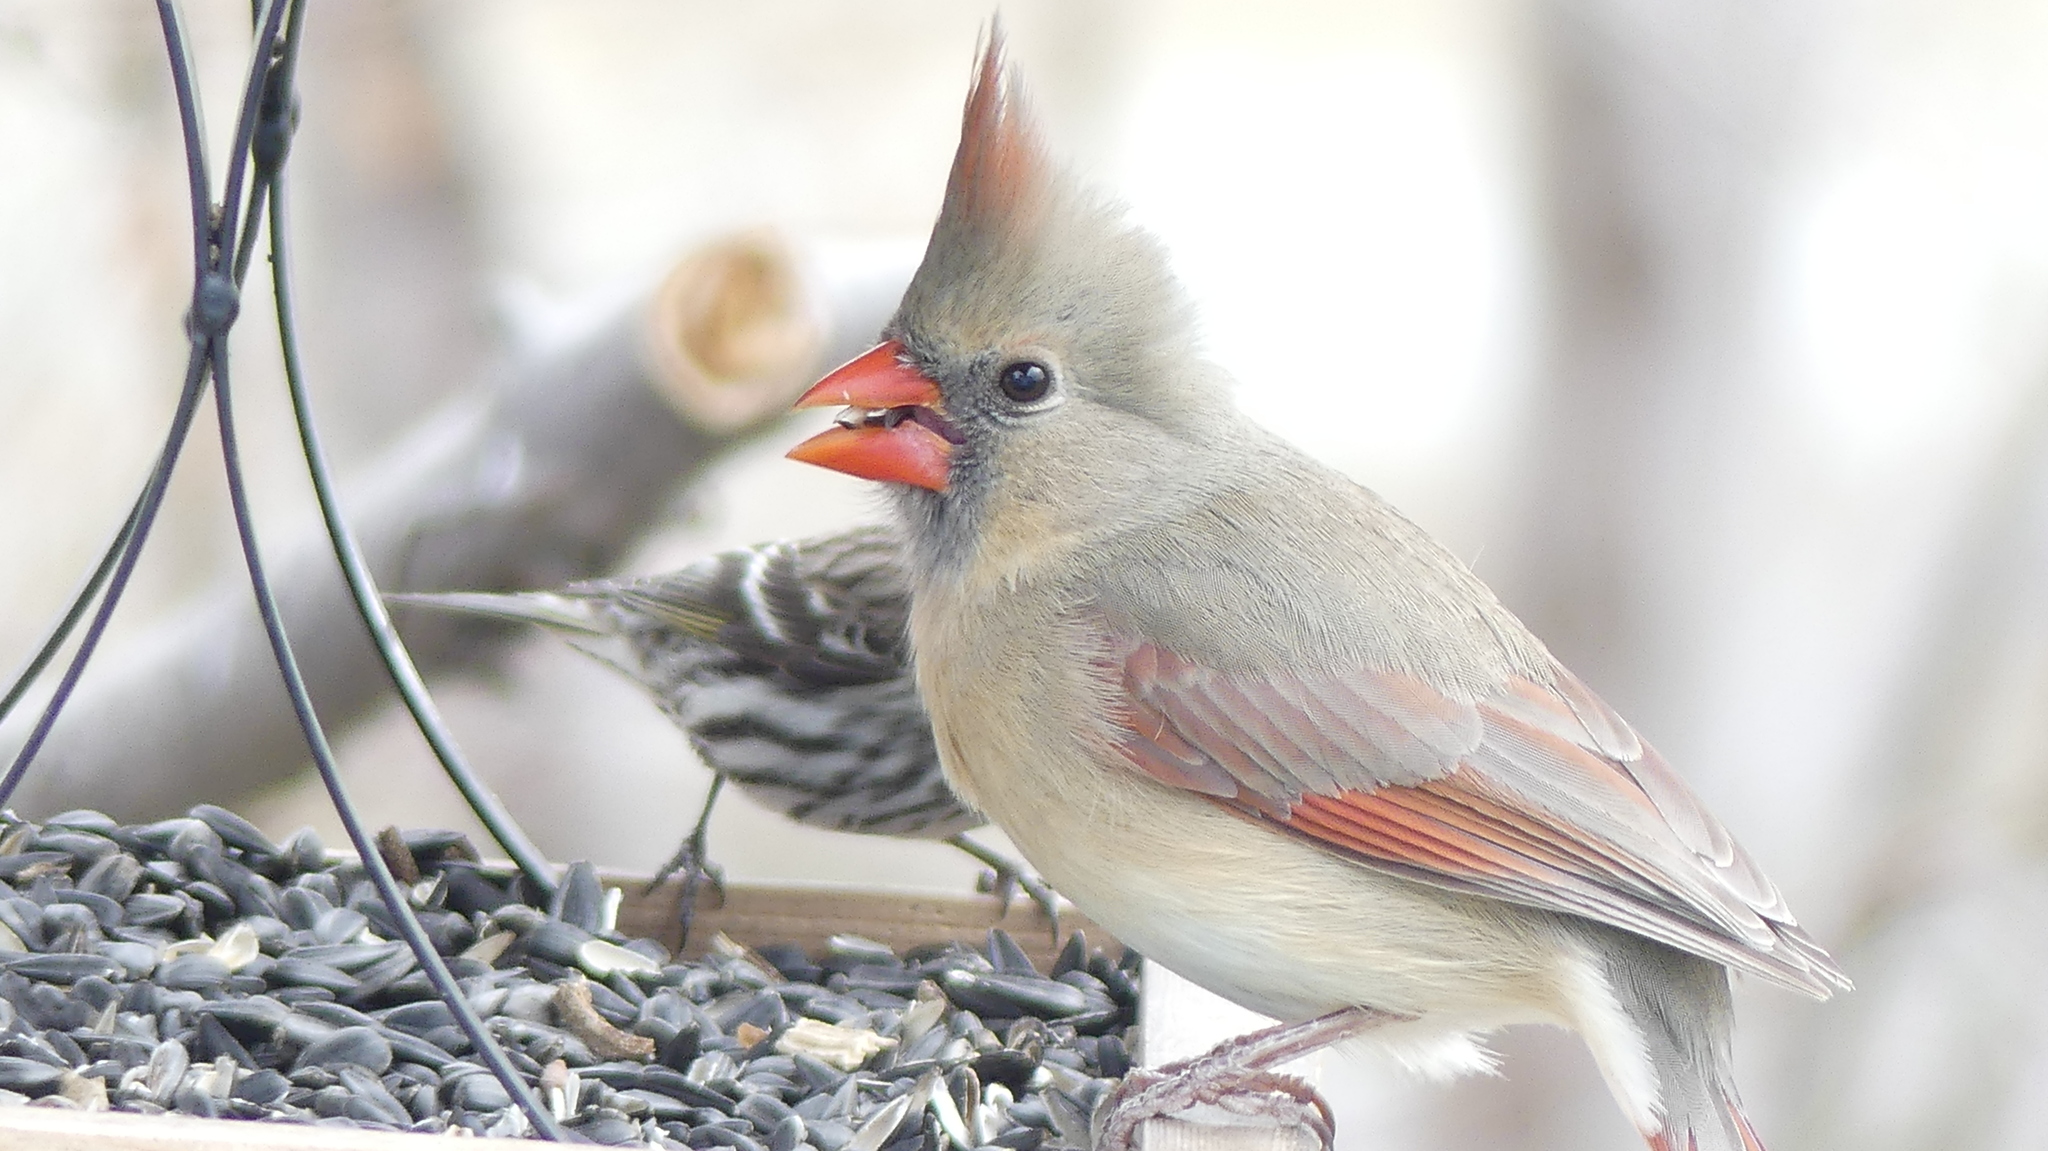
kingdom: Animalia
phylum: Chordata
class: Aves
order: Passeriformes
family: Cardinalidae
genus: Cardinalis
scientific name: Cardinalis cardinalis
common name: Northern cardinal
